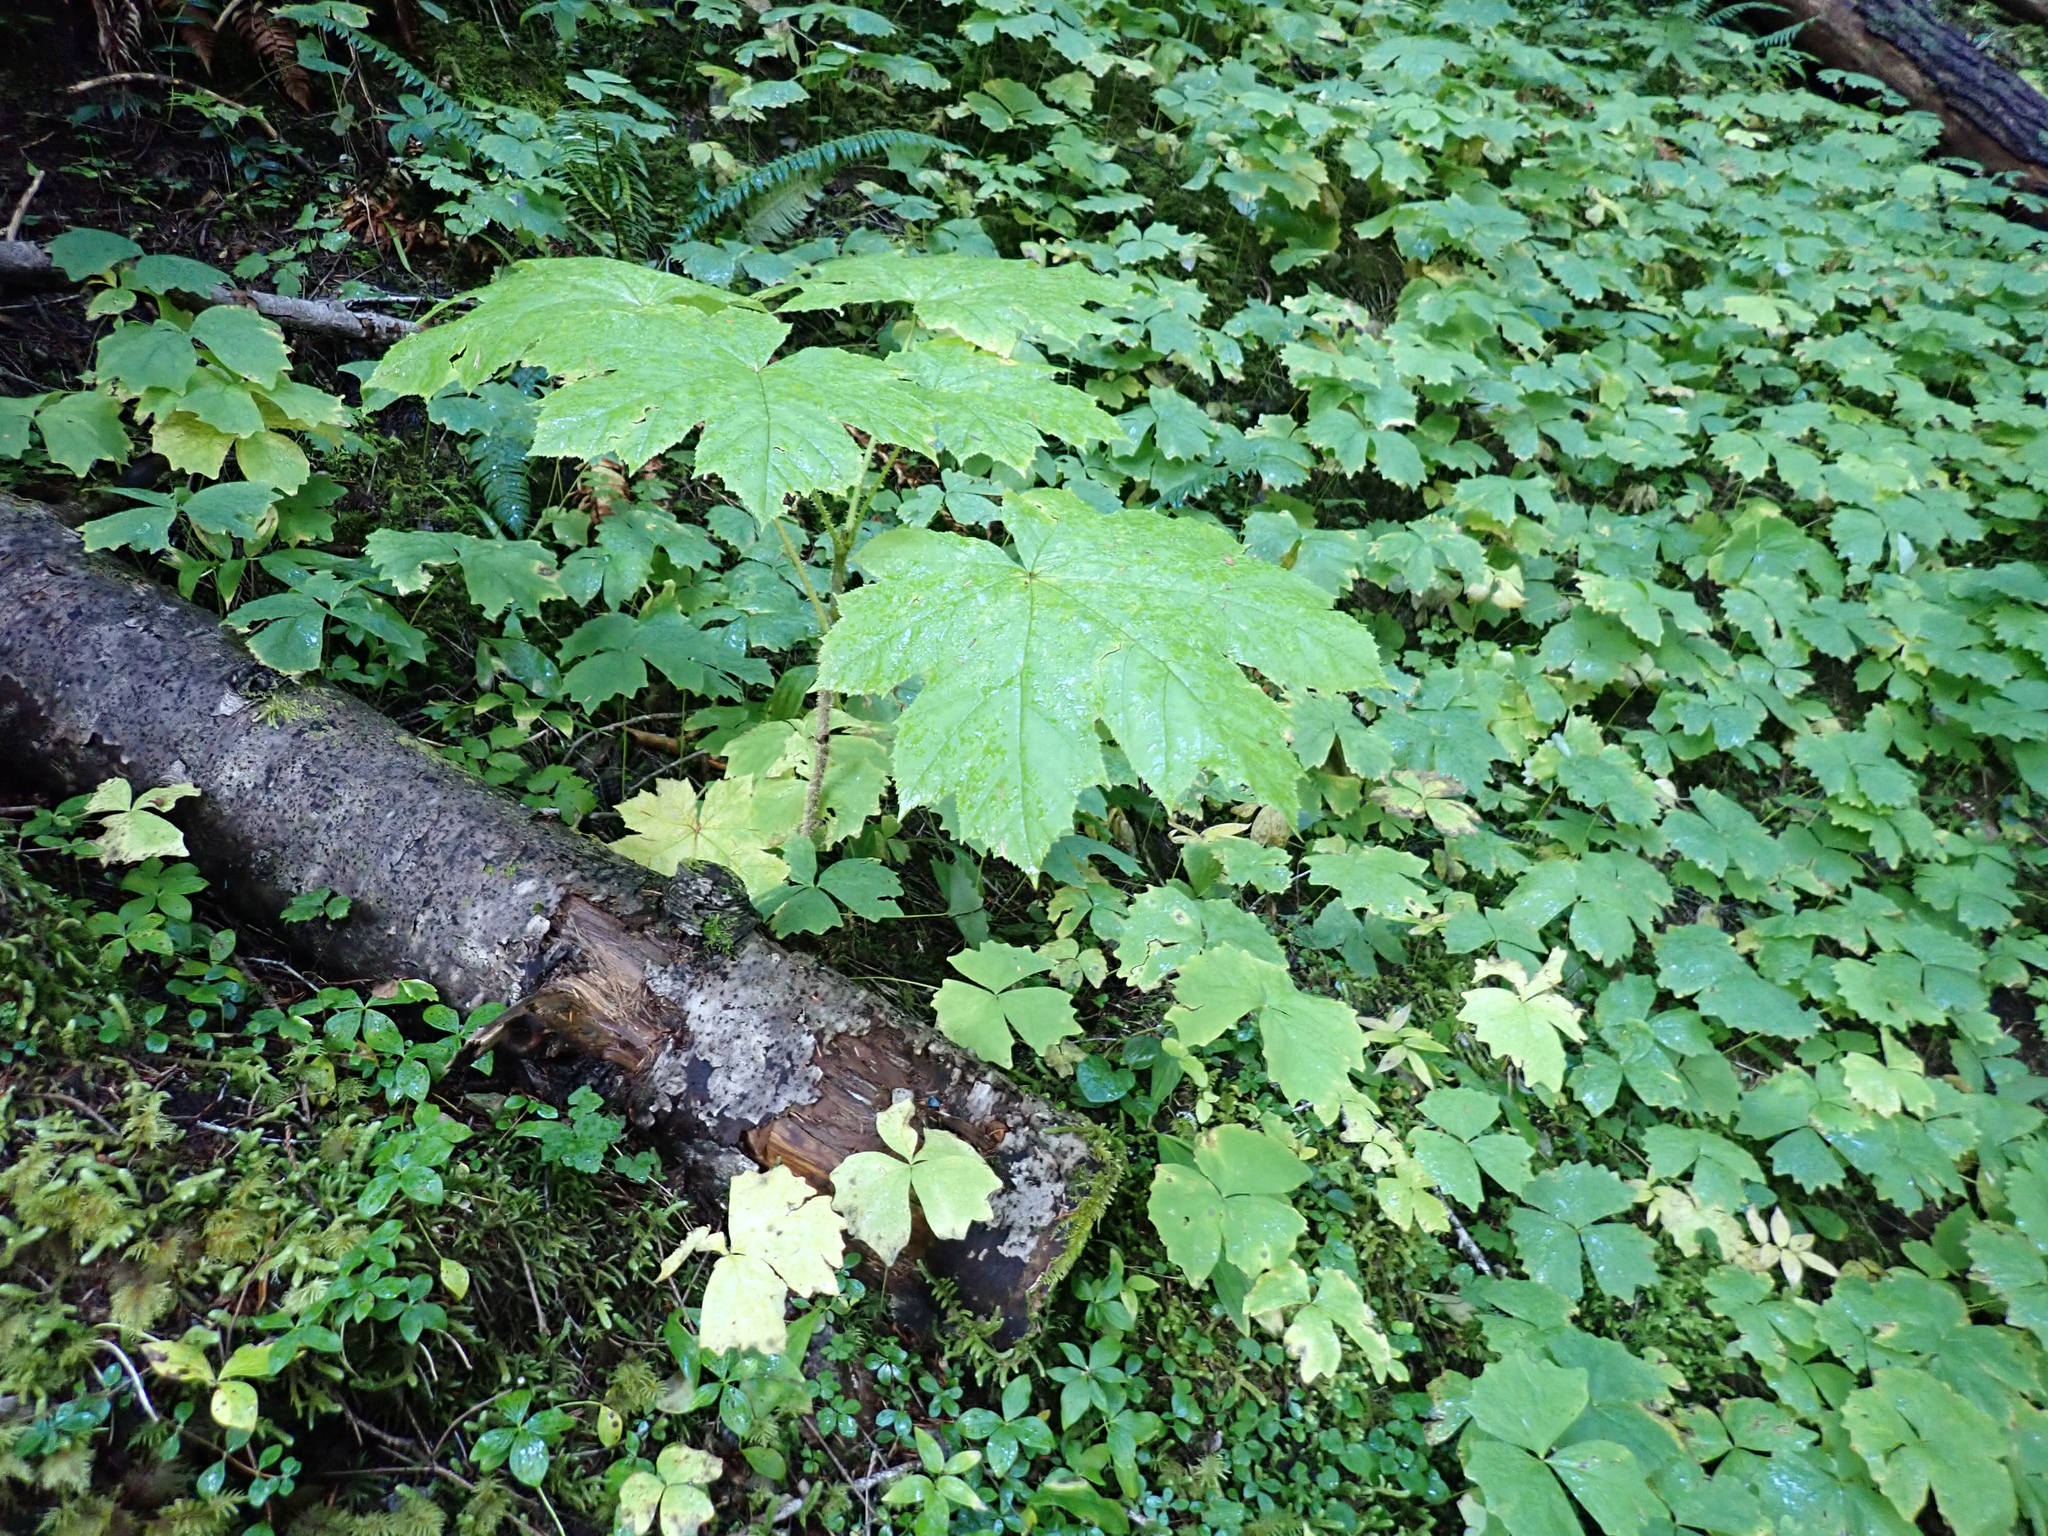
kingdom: Plantae
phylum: Tracheophyta
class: Magnoliopsida
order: Apiales
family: Araliaceae
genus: Oplopanax
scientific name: Oplopanax horridus
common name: Devil's walking-stick
